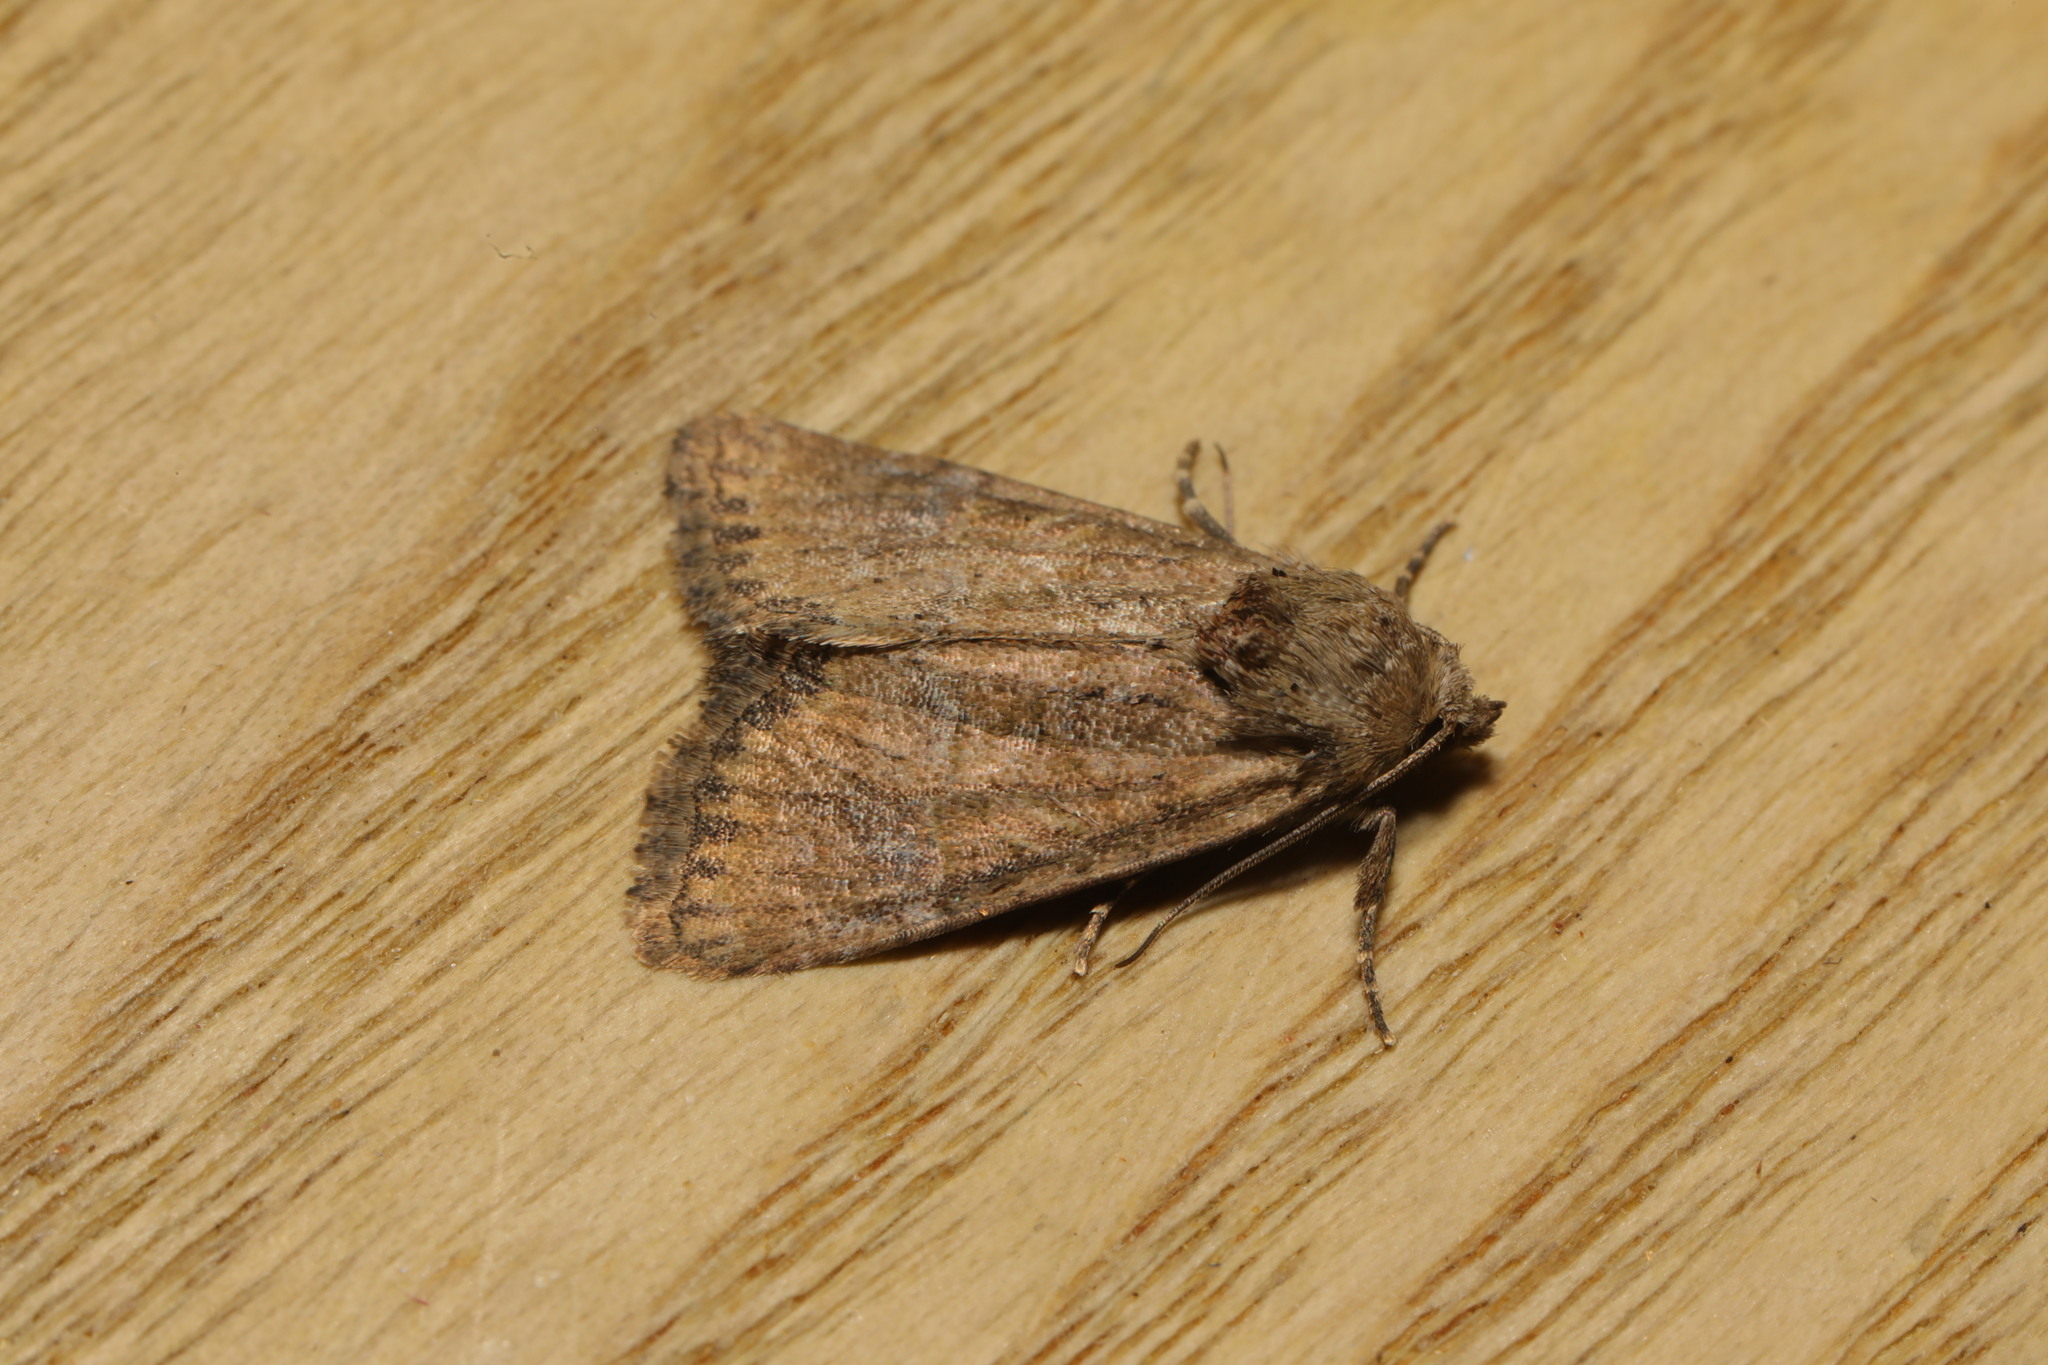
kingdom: Animalia
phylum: Arthropoda
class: Insecta
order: Lepidoptera
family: Noctuidae
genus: Mesoligia
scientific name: Mesoligia furuncula
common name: Cloaked minor
